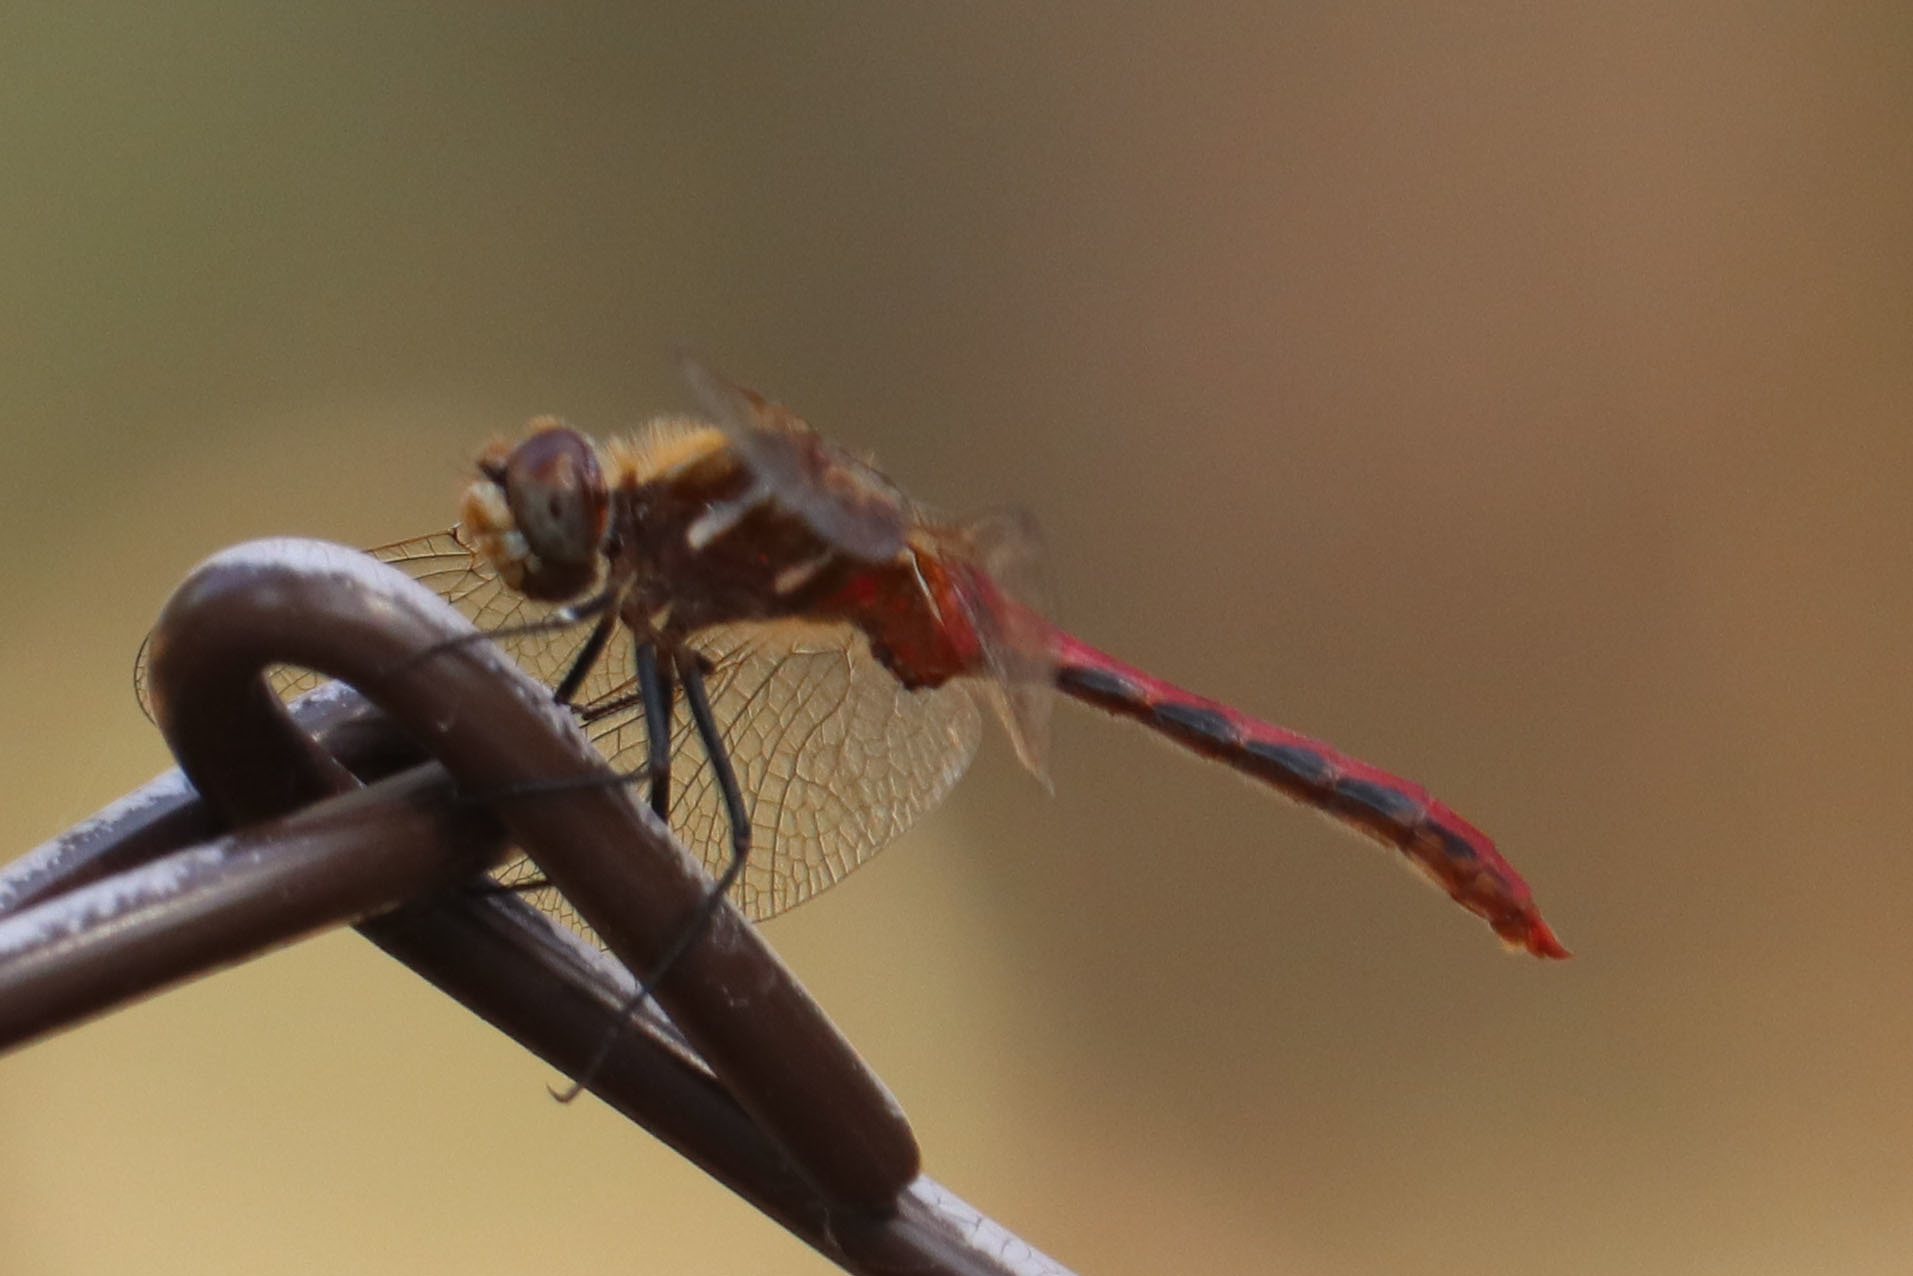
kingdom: Animalia
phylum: Arthropoda
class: Insecta
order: Odonata
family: Libellulidae
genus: Sympetrum
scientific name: Sympetrum pallipes
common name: Striped meadowhawk
